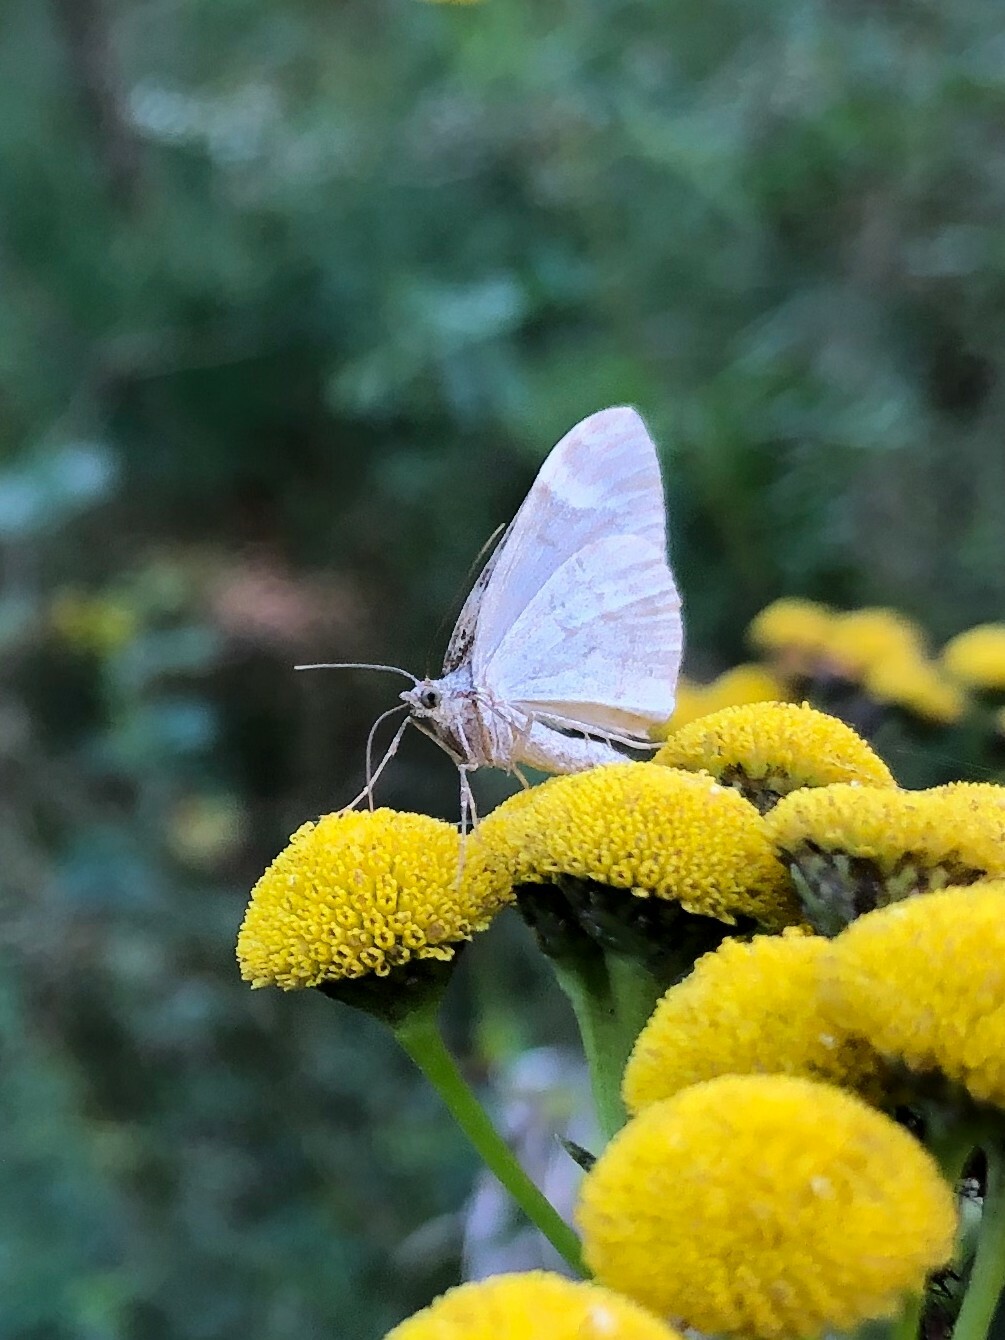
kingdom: Animalia
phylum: Arthropoda
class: Insecta
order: Lepidoptera
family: Geometridae
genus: Dysstroma
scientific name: Dysstroma citrata
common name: Dark marbled carpet
